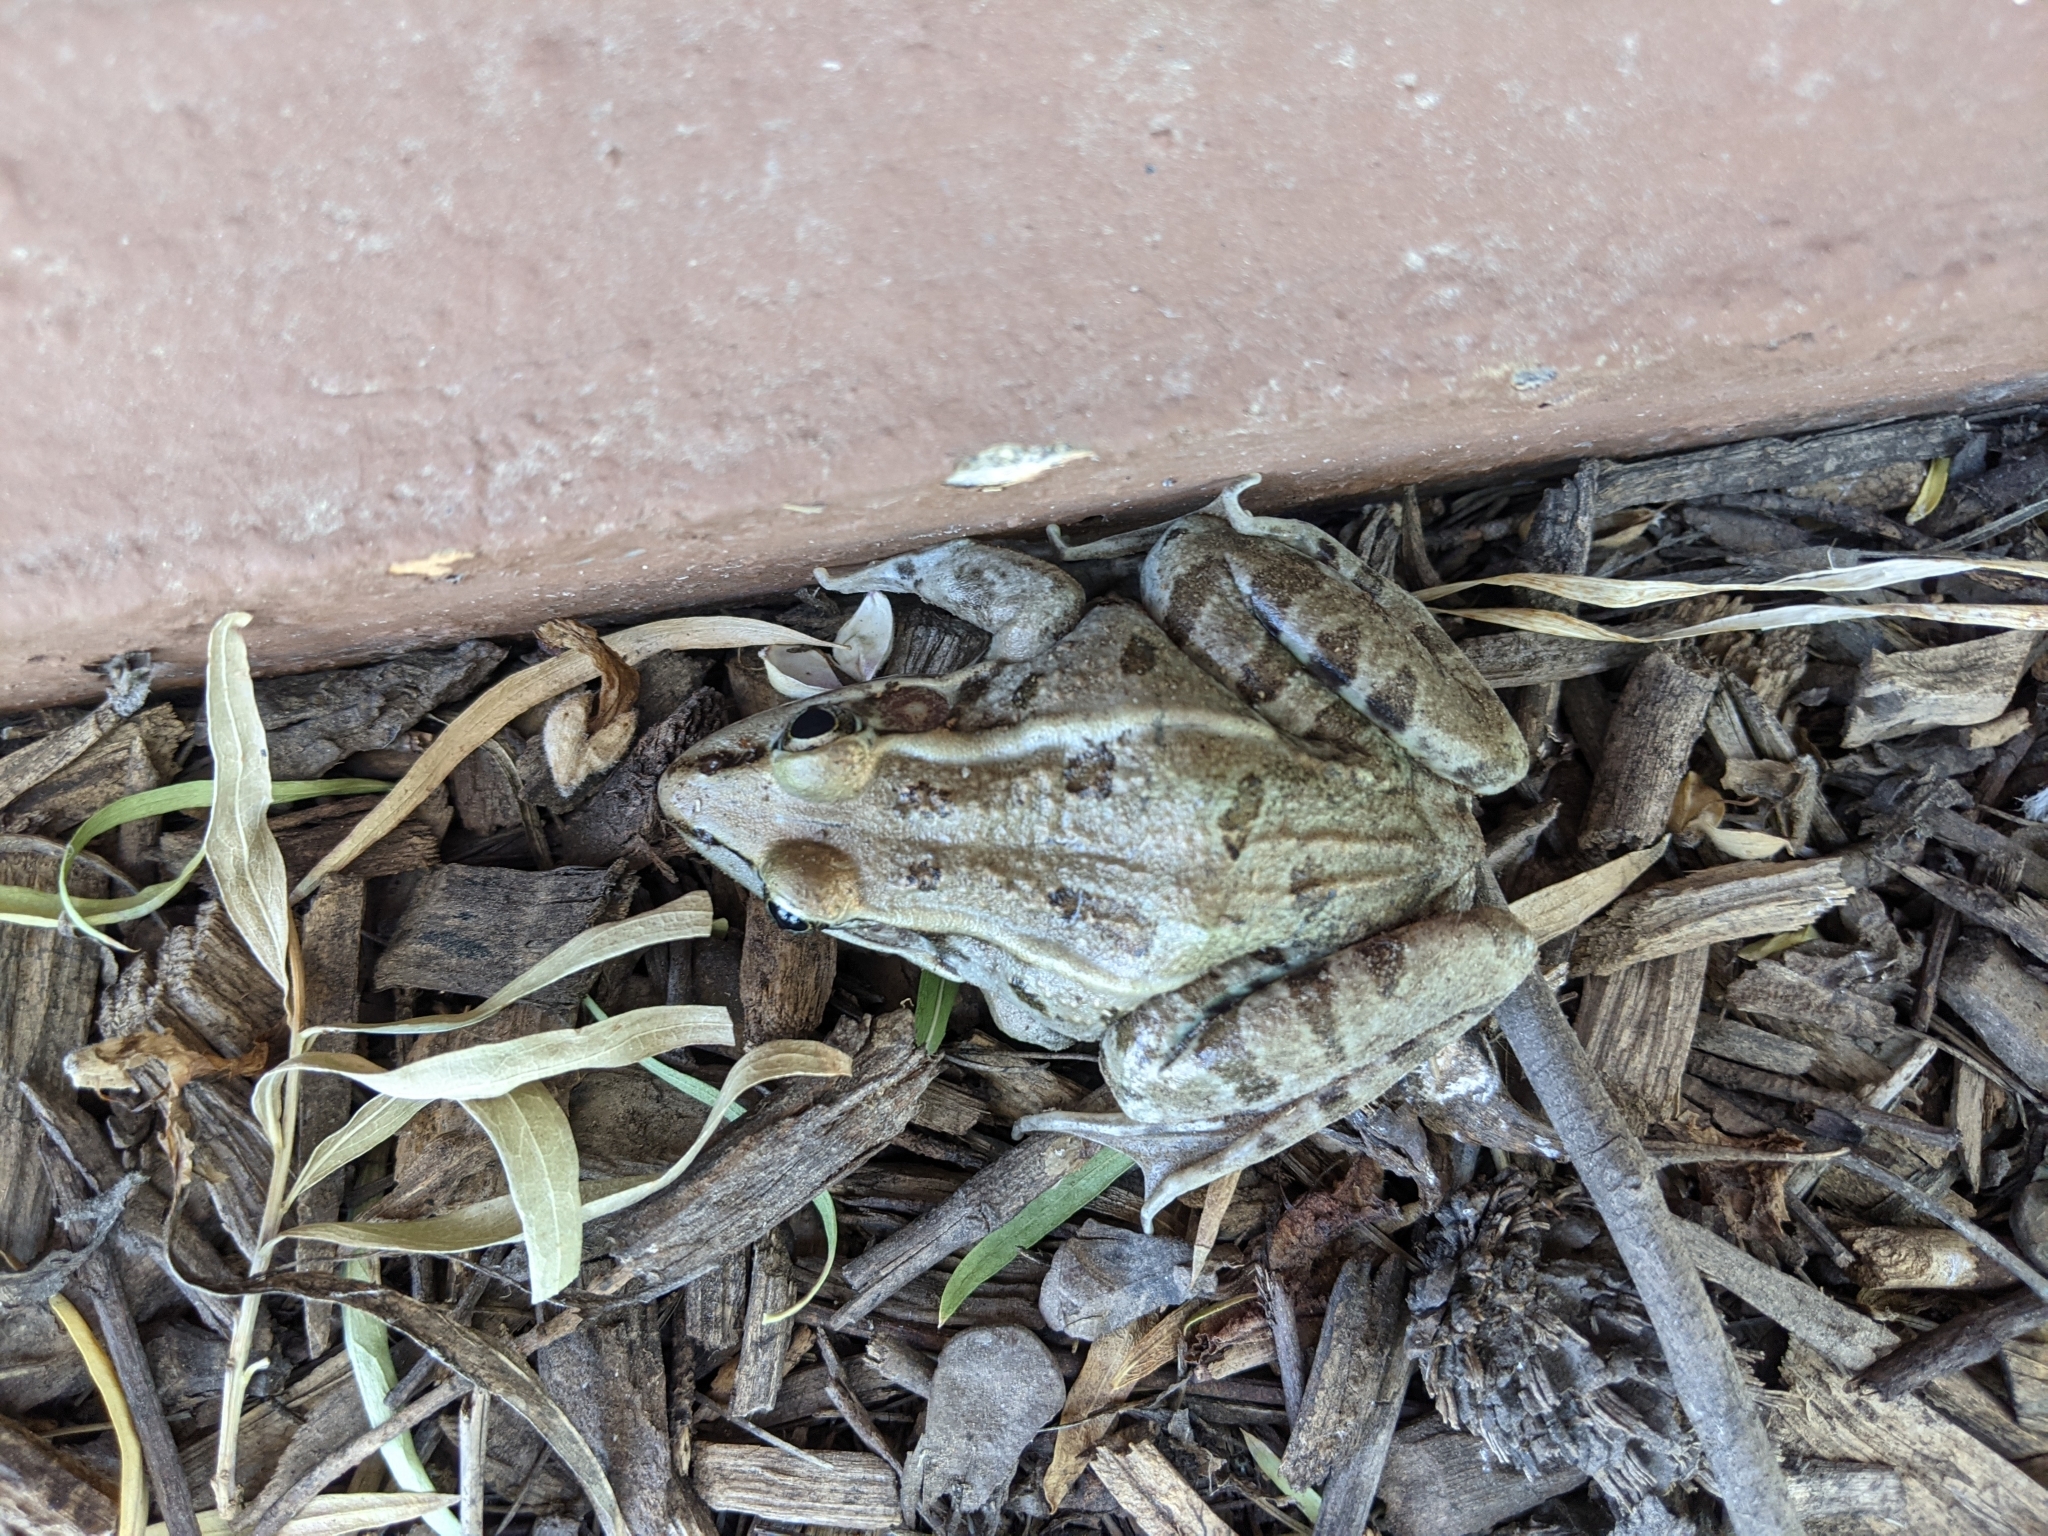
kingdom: Animalia
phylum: Chordata
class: Amphibia
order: Anura
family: Ranidae
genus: Lithobates
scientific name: Lithobates berlandieri
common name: Rio grande leopard frog
